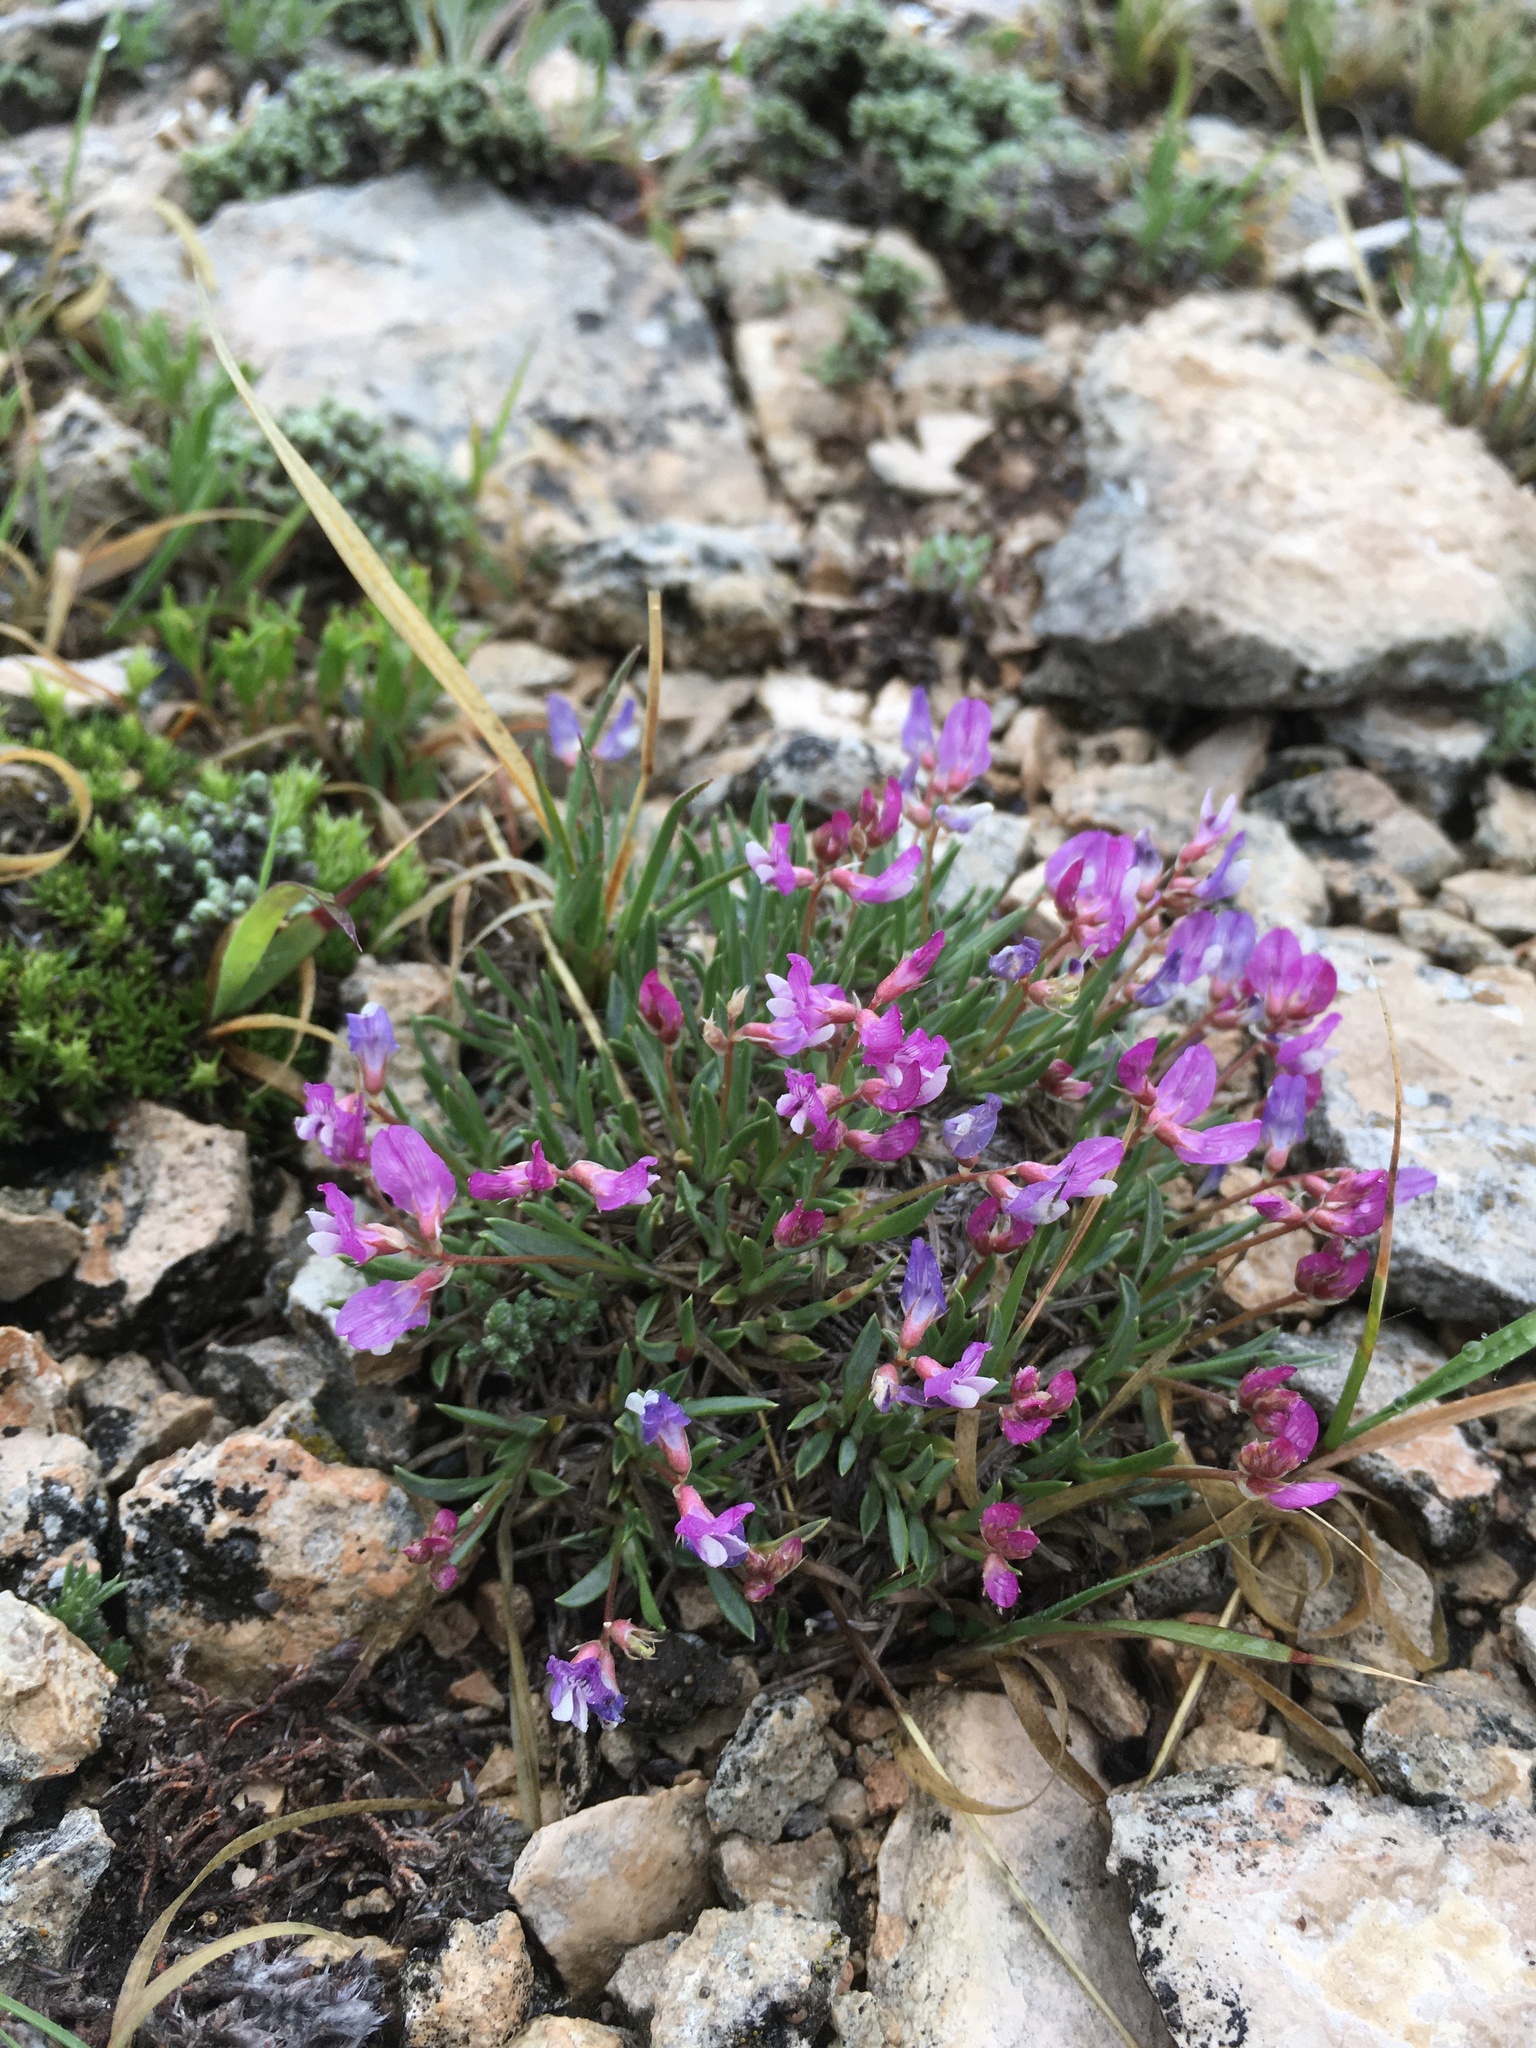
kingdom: Plantae
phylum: Tracheophyta
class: Magnoliopsida
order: Fabales
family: Fabaceae
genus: Astragalus
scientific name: Astragalus spatulatus
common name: Draba milk-vetch
